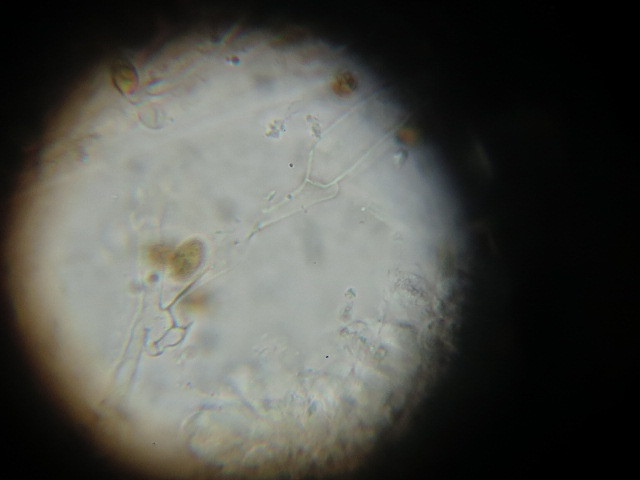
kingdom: Fungi
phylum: Basidiomycota
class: Agaricomycetes
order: Agaricales
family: Hymenogastraceae
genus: Galerina
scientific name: Galerina patagonica
